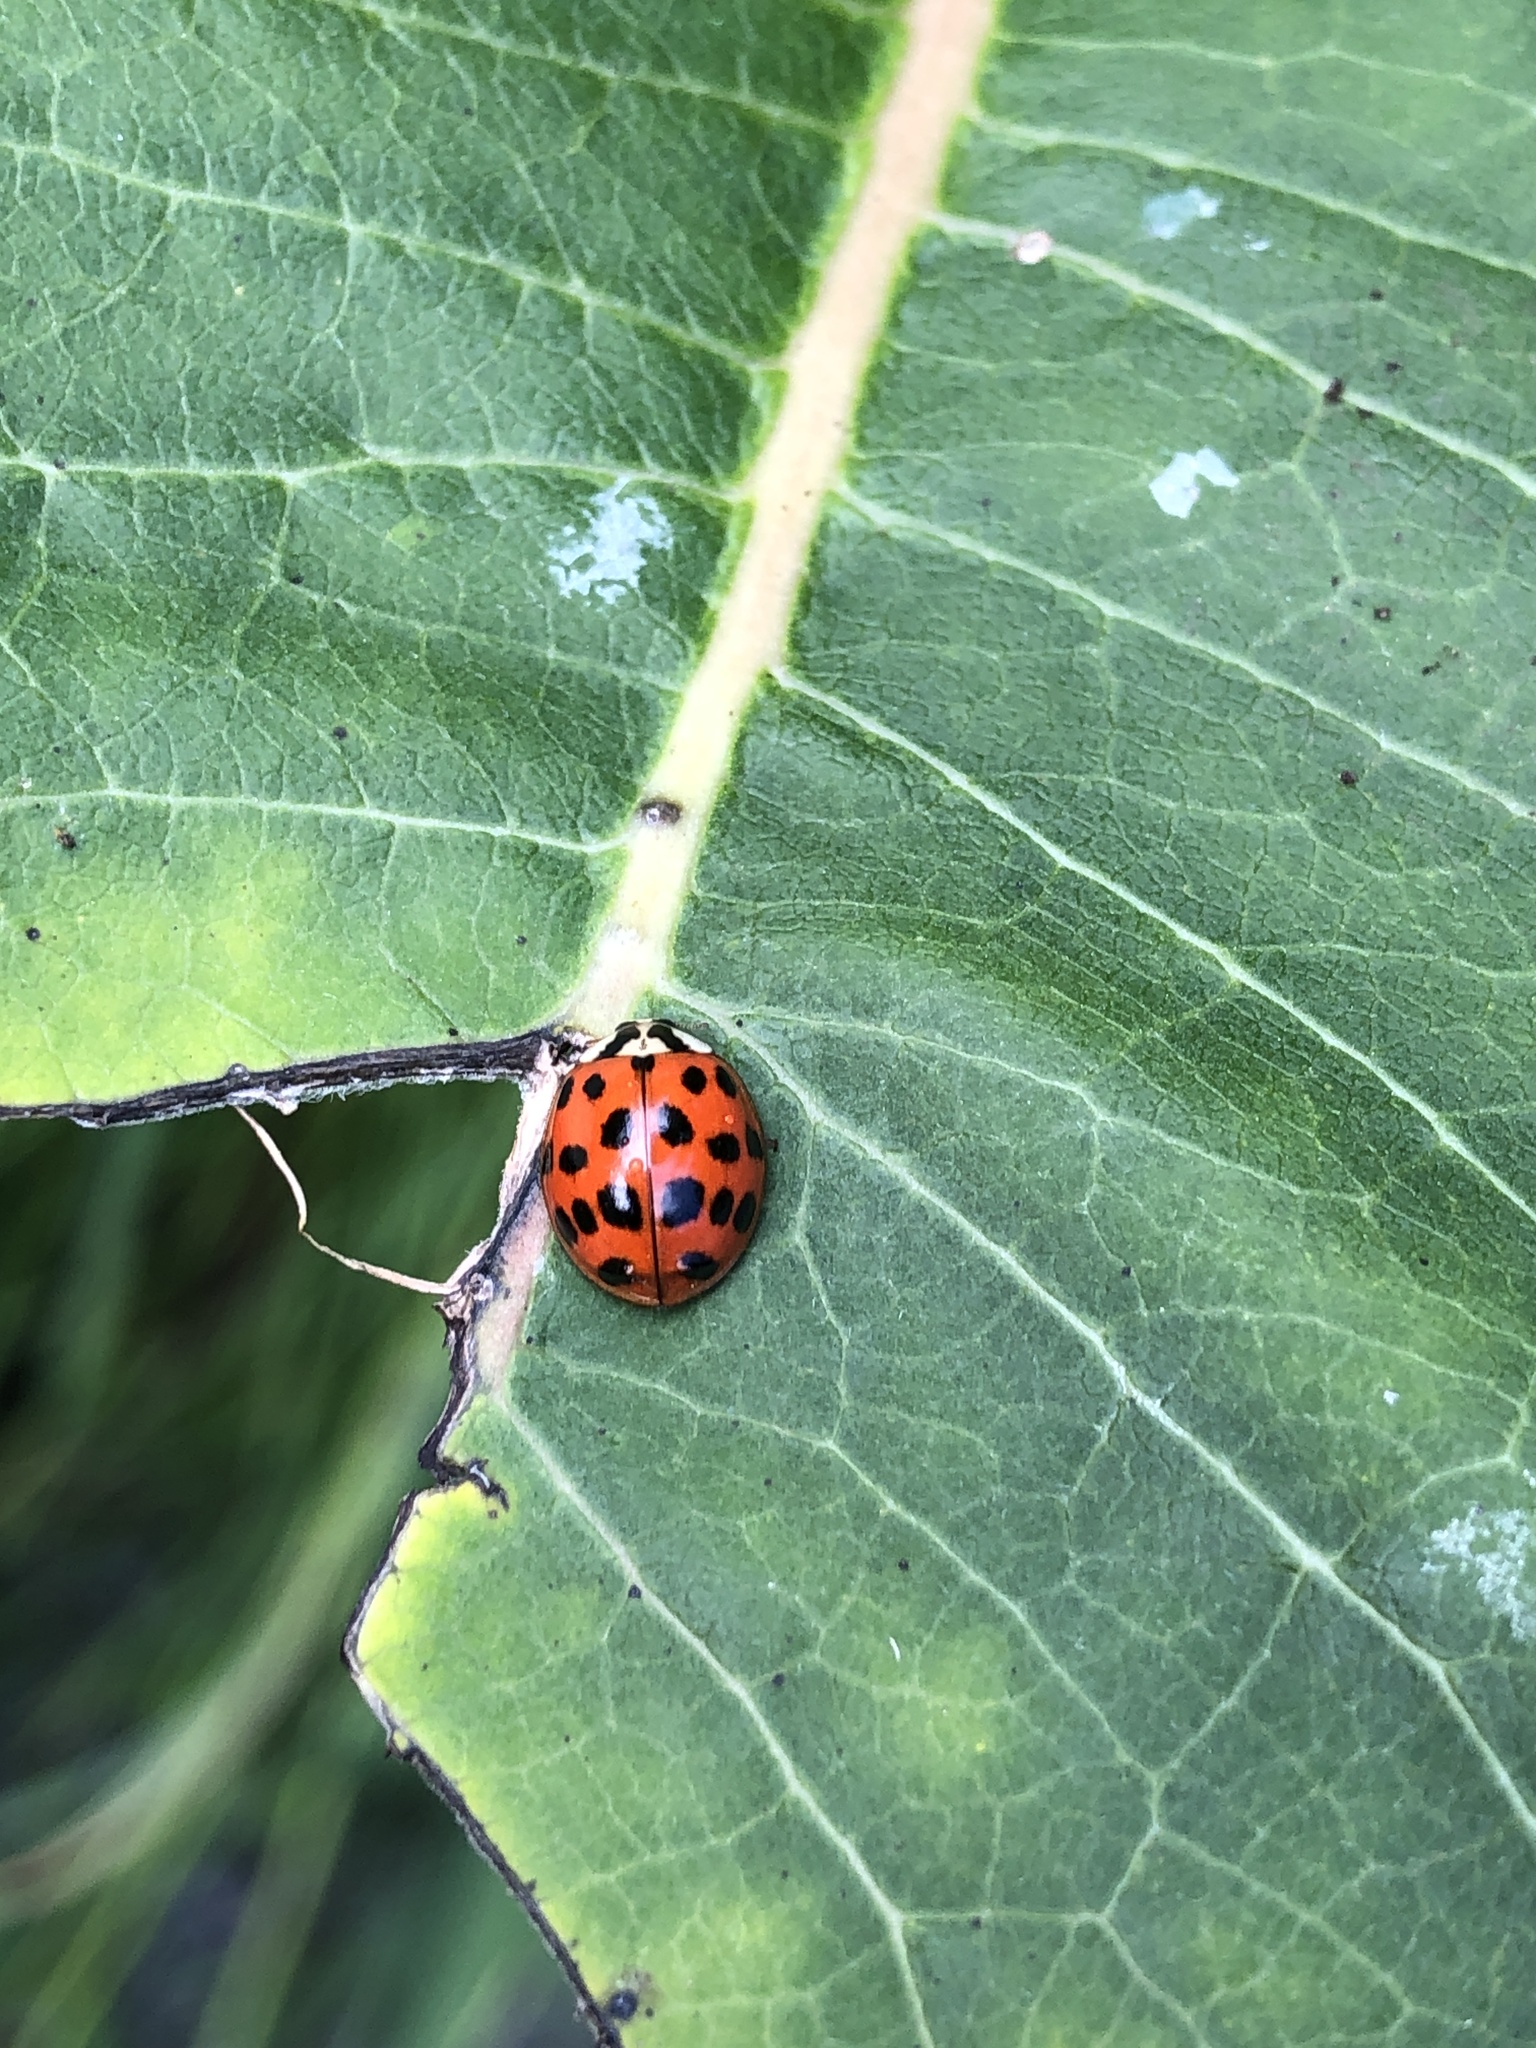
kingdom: Animalia
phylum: Arthropoda
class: Insecta
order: Coleoptera
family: Coccinellidae
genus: Harmonia
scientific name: Harmonia axyridis
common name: Harlequin ladybird
